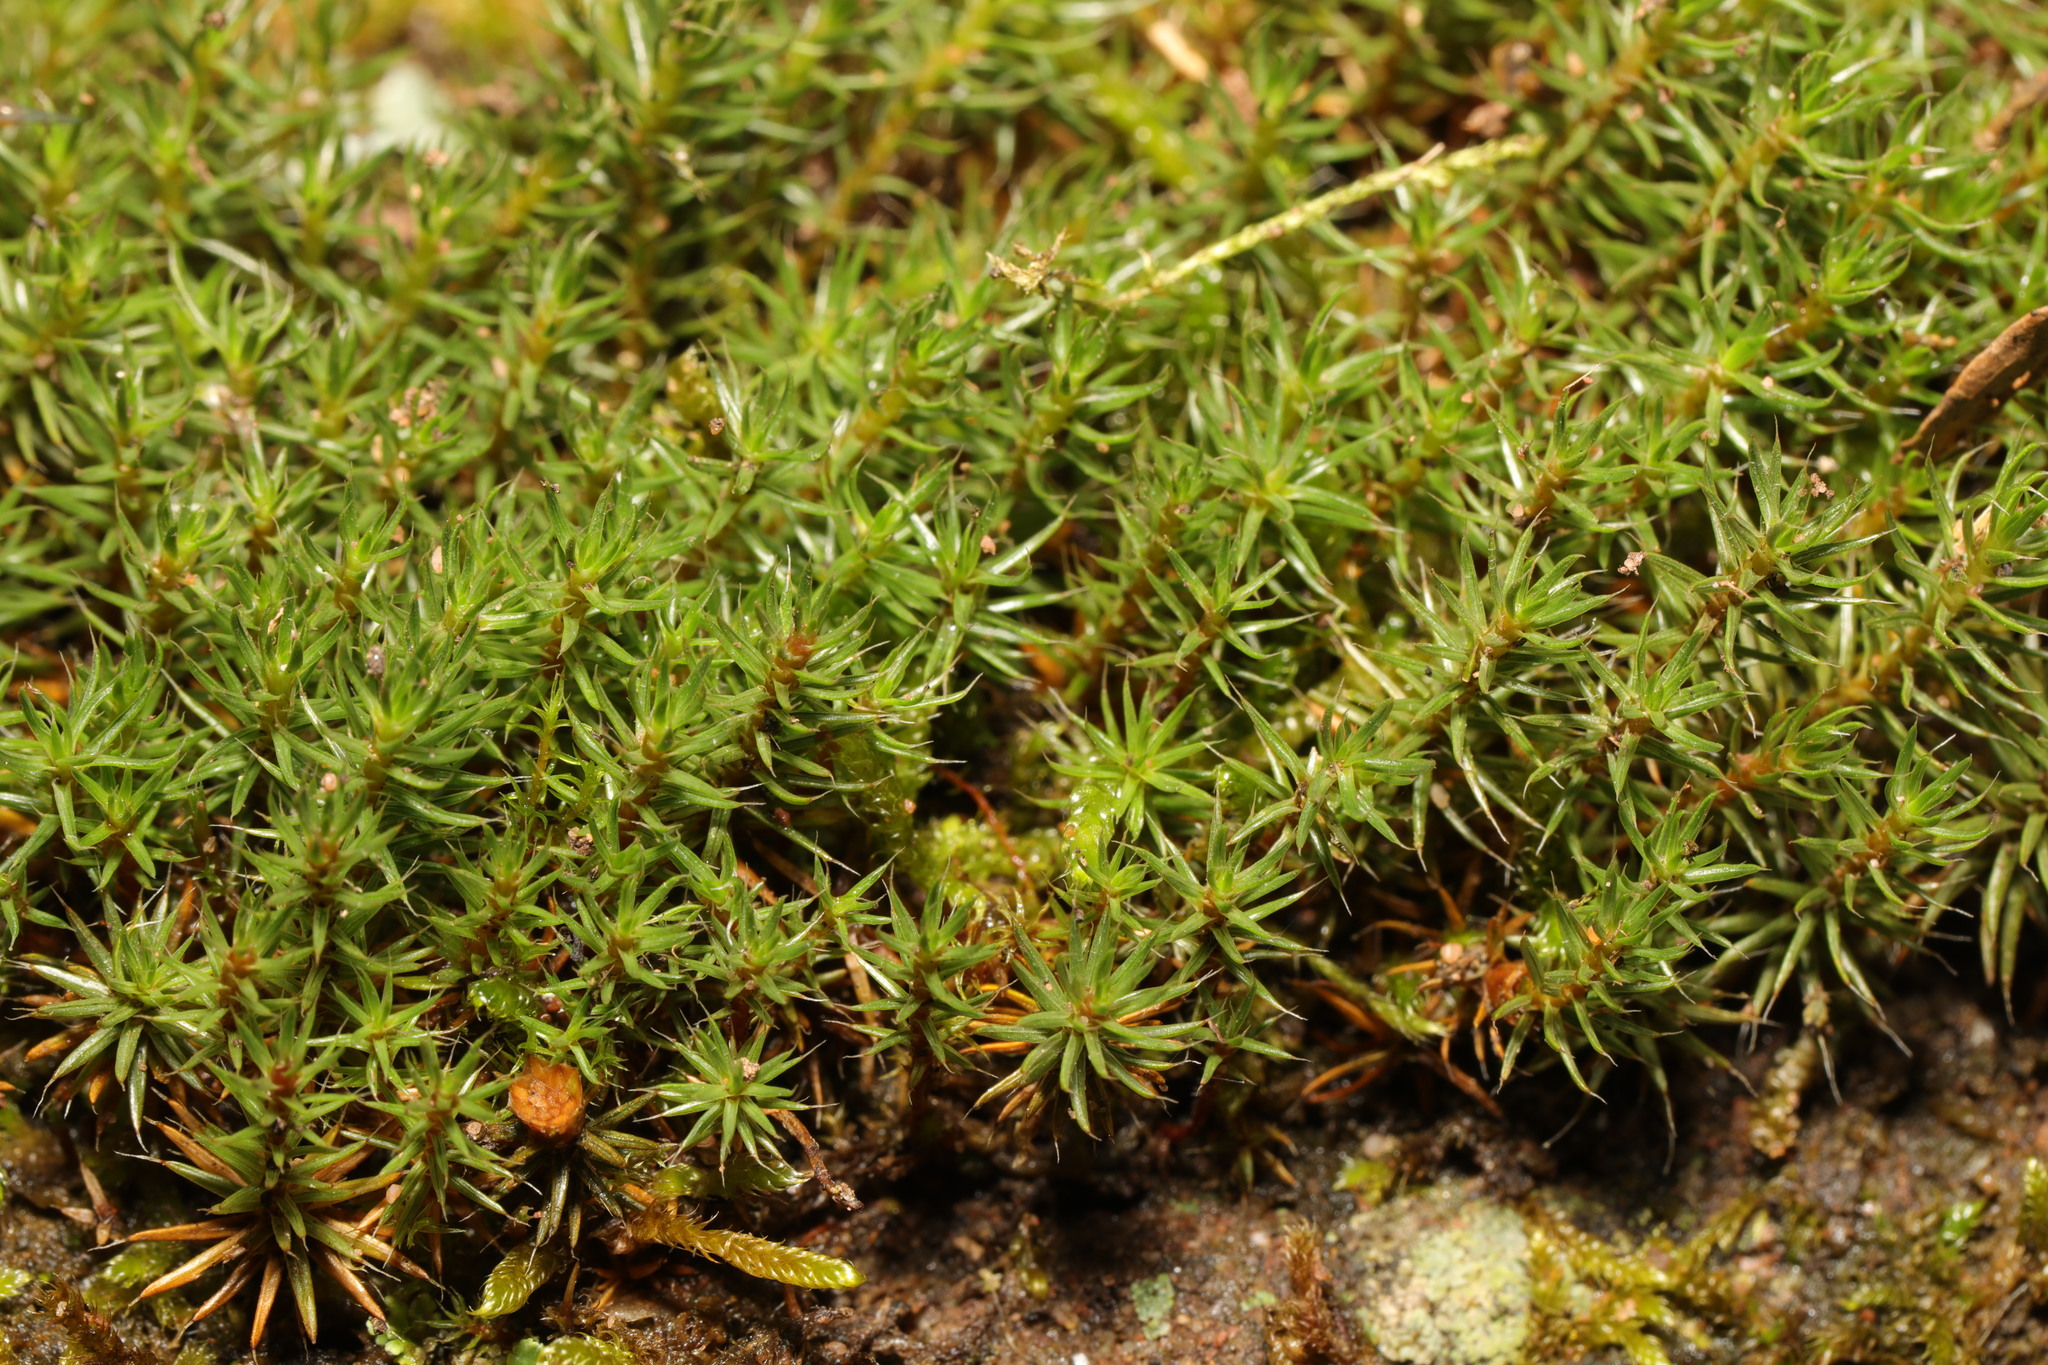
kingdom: Plantae
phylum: Bryophyta
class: Polytrichopsida
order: Polytrichales
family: Polytrichaceae
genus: Polytrichum
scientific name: Polytrichum piliferum
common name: Bristly haircap
